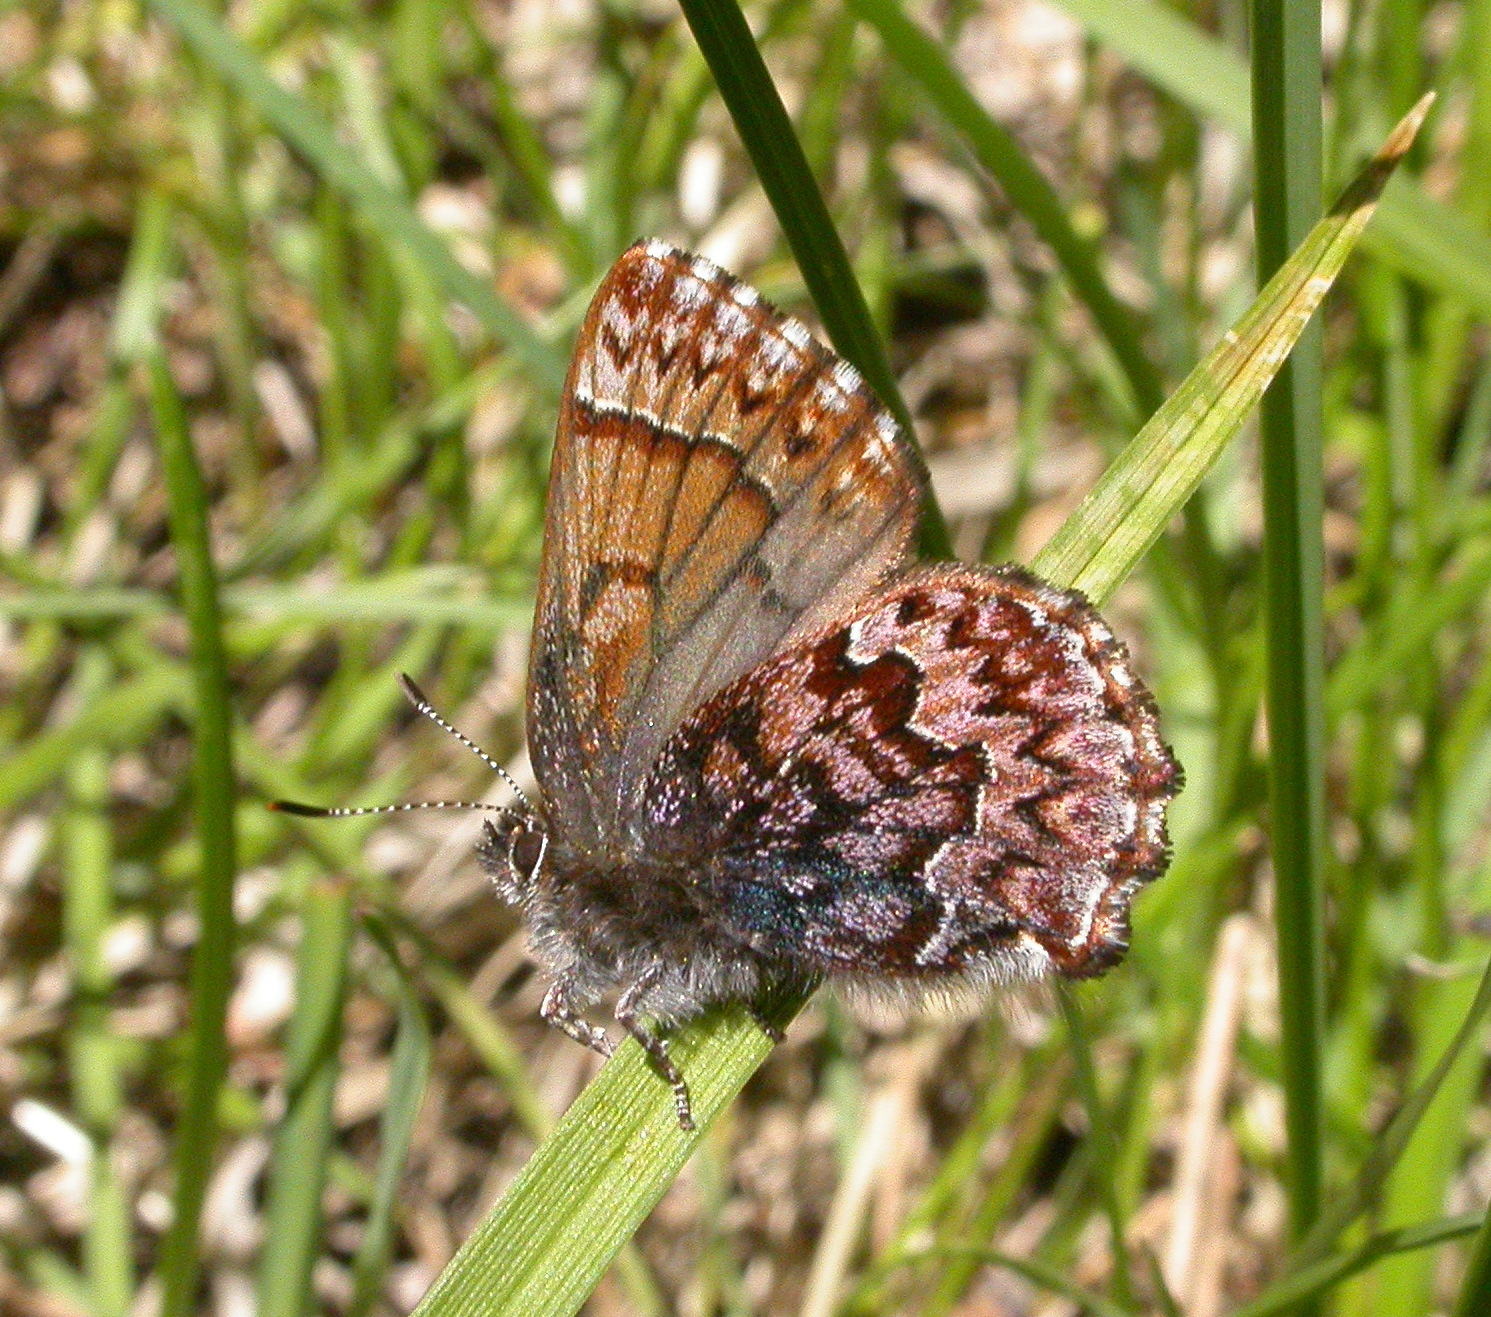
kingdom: Animalia
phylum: Arthropoda
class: Insecta
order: Lepidoptera
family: Lycaenidae
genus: Incisalia
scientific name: Incisalia eryphon
